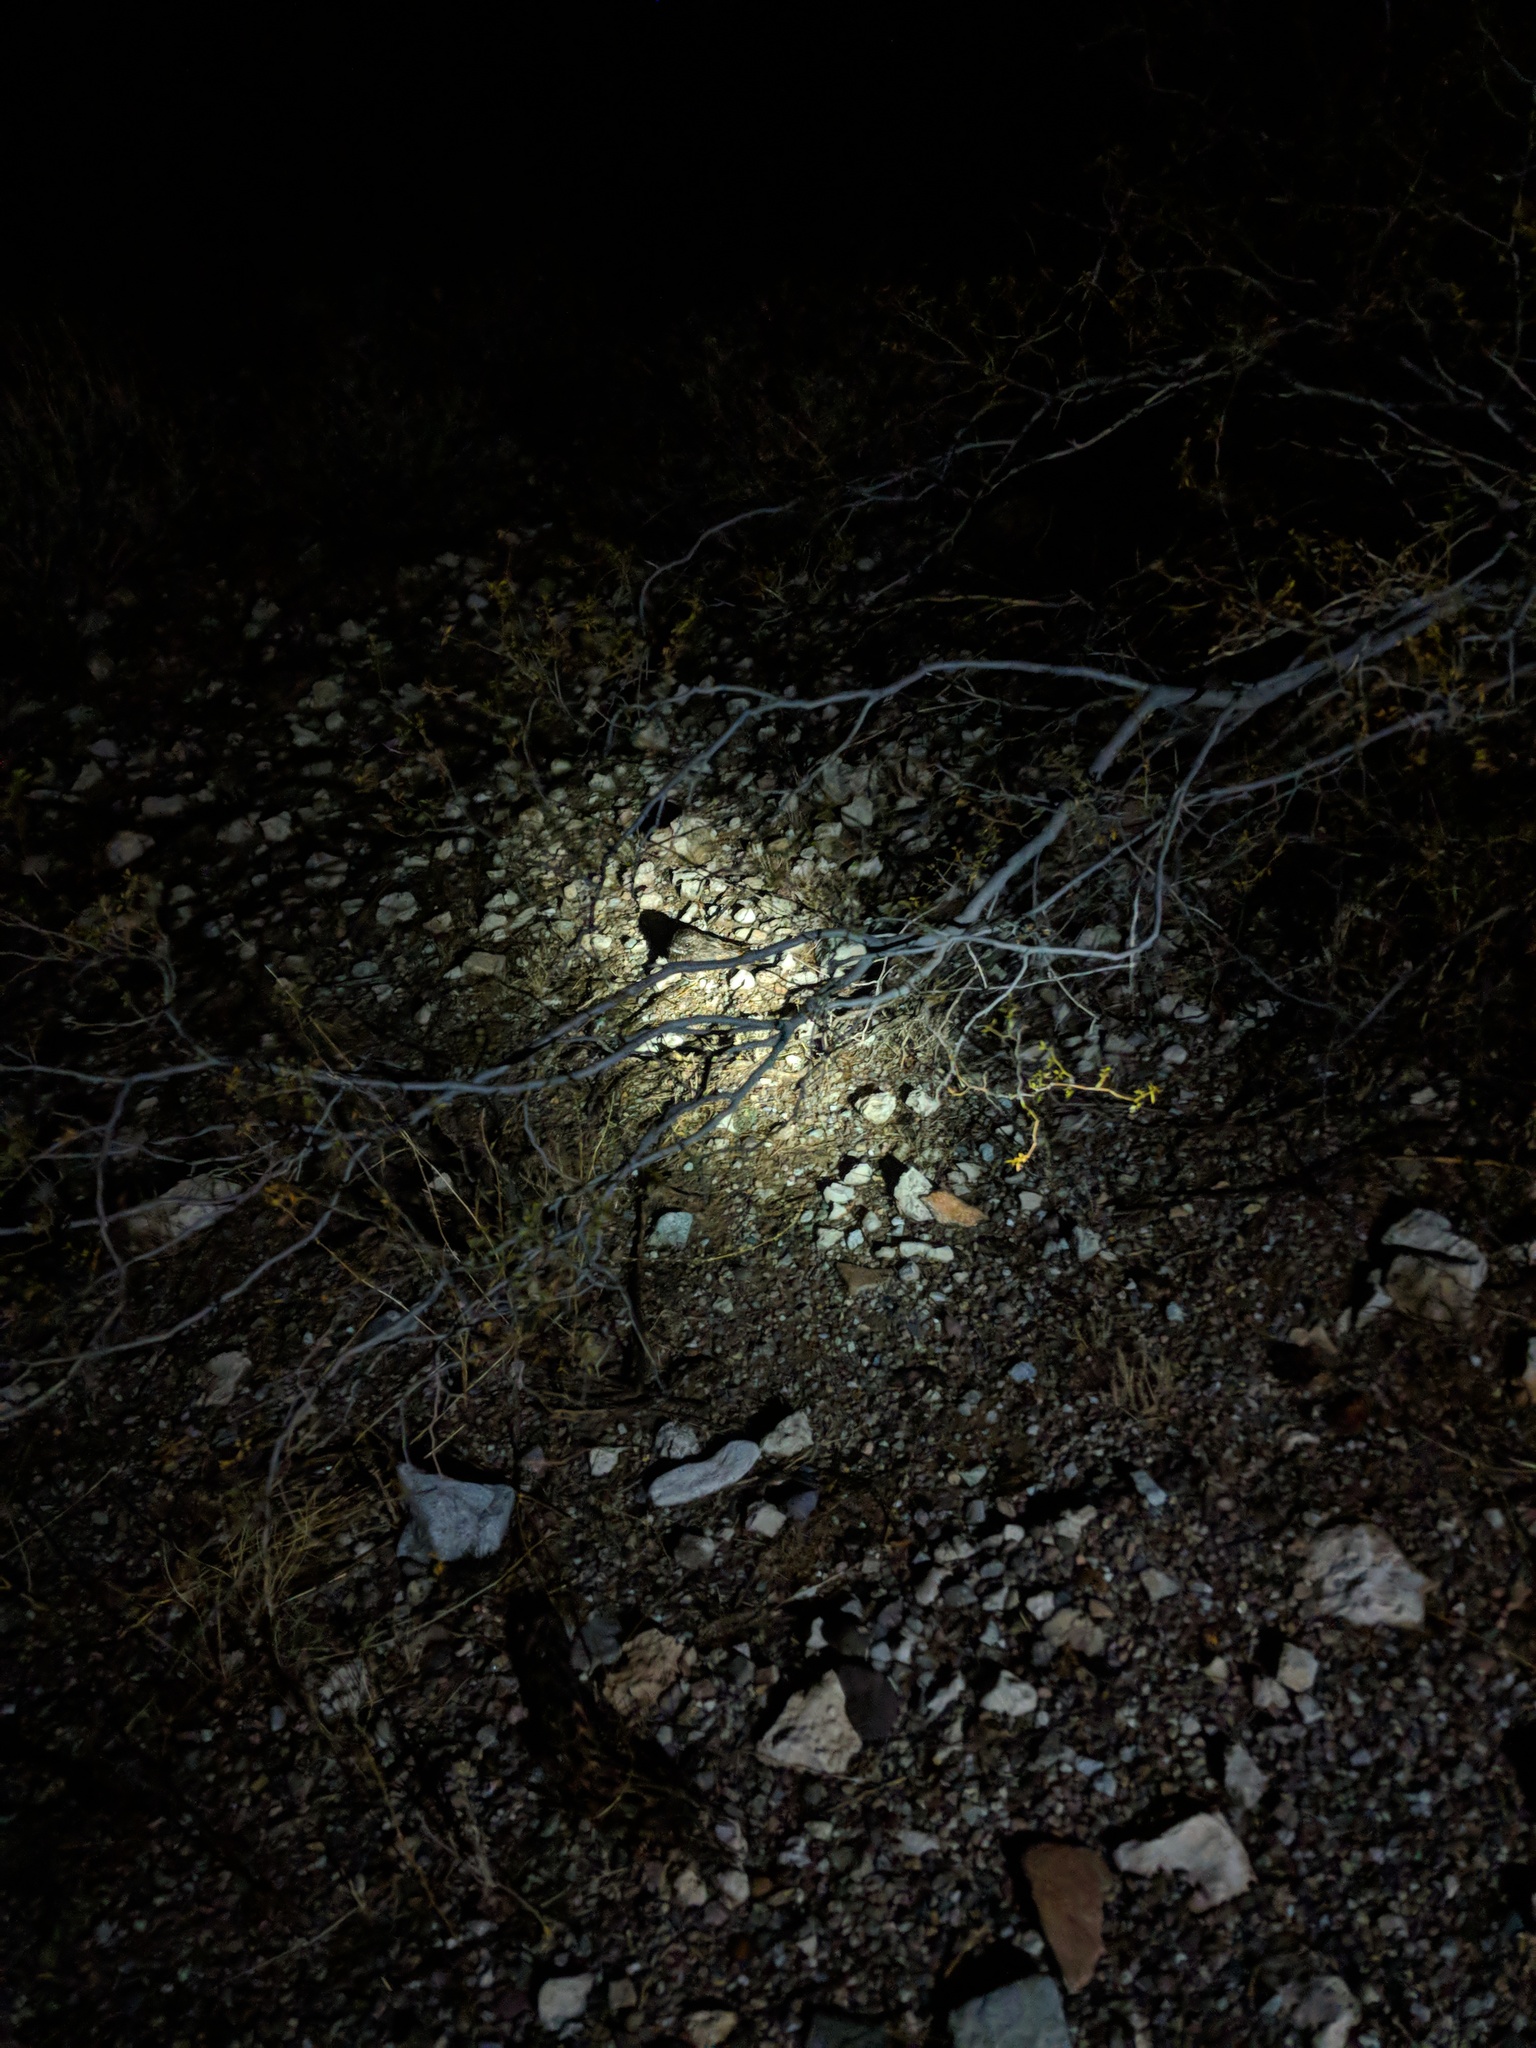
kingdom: Animalia
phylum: Chordata
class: Aves
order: Caprimulgiformes
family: Caprimulgidae
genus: Phalaenoptilus
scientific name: Phalaenoptilus nuttallii
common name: Common poorwill
